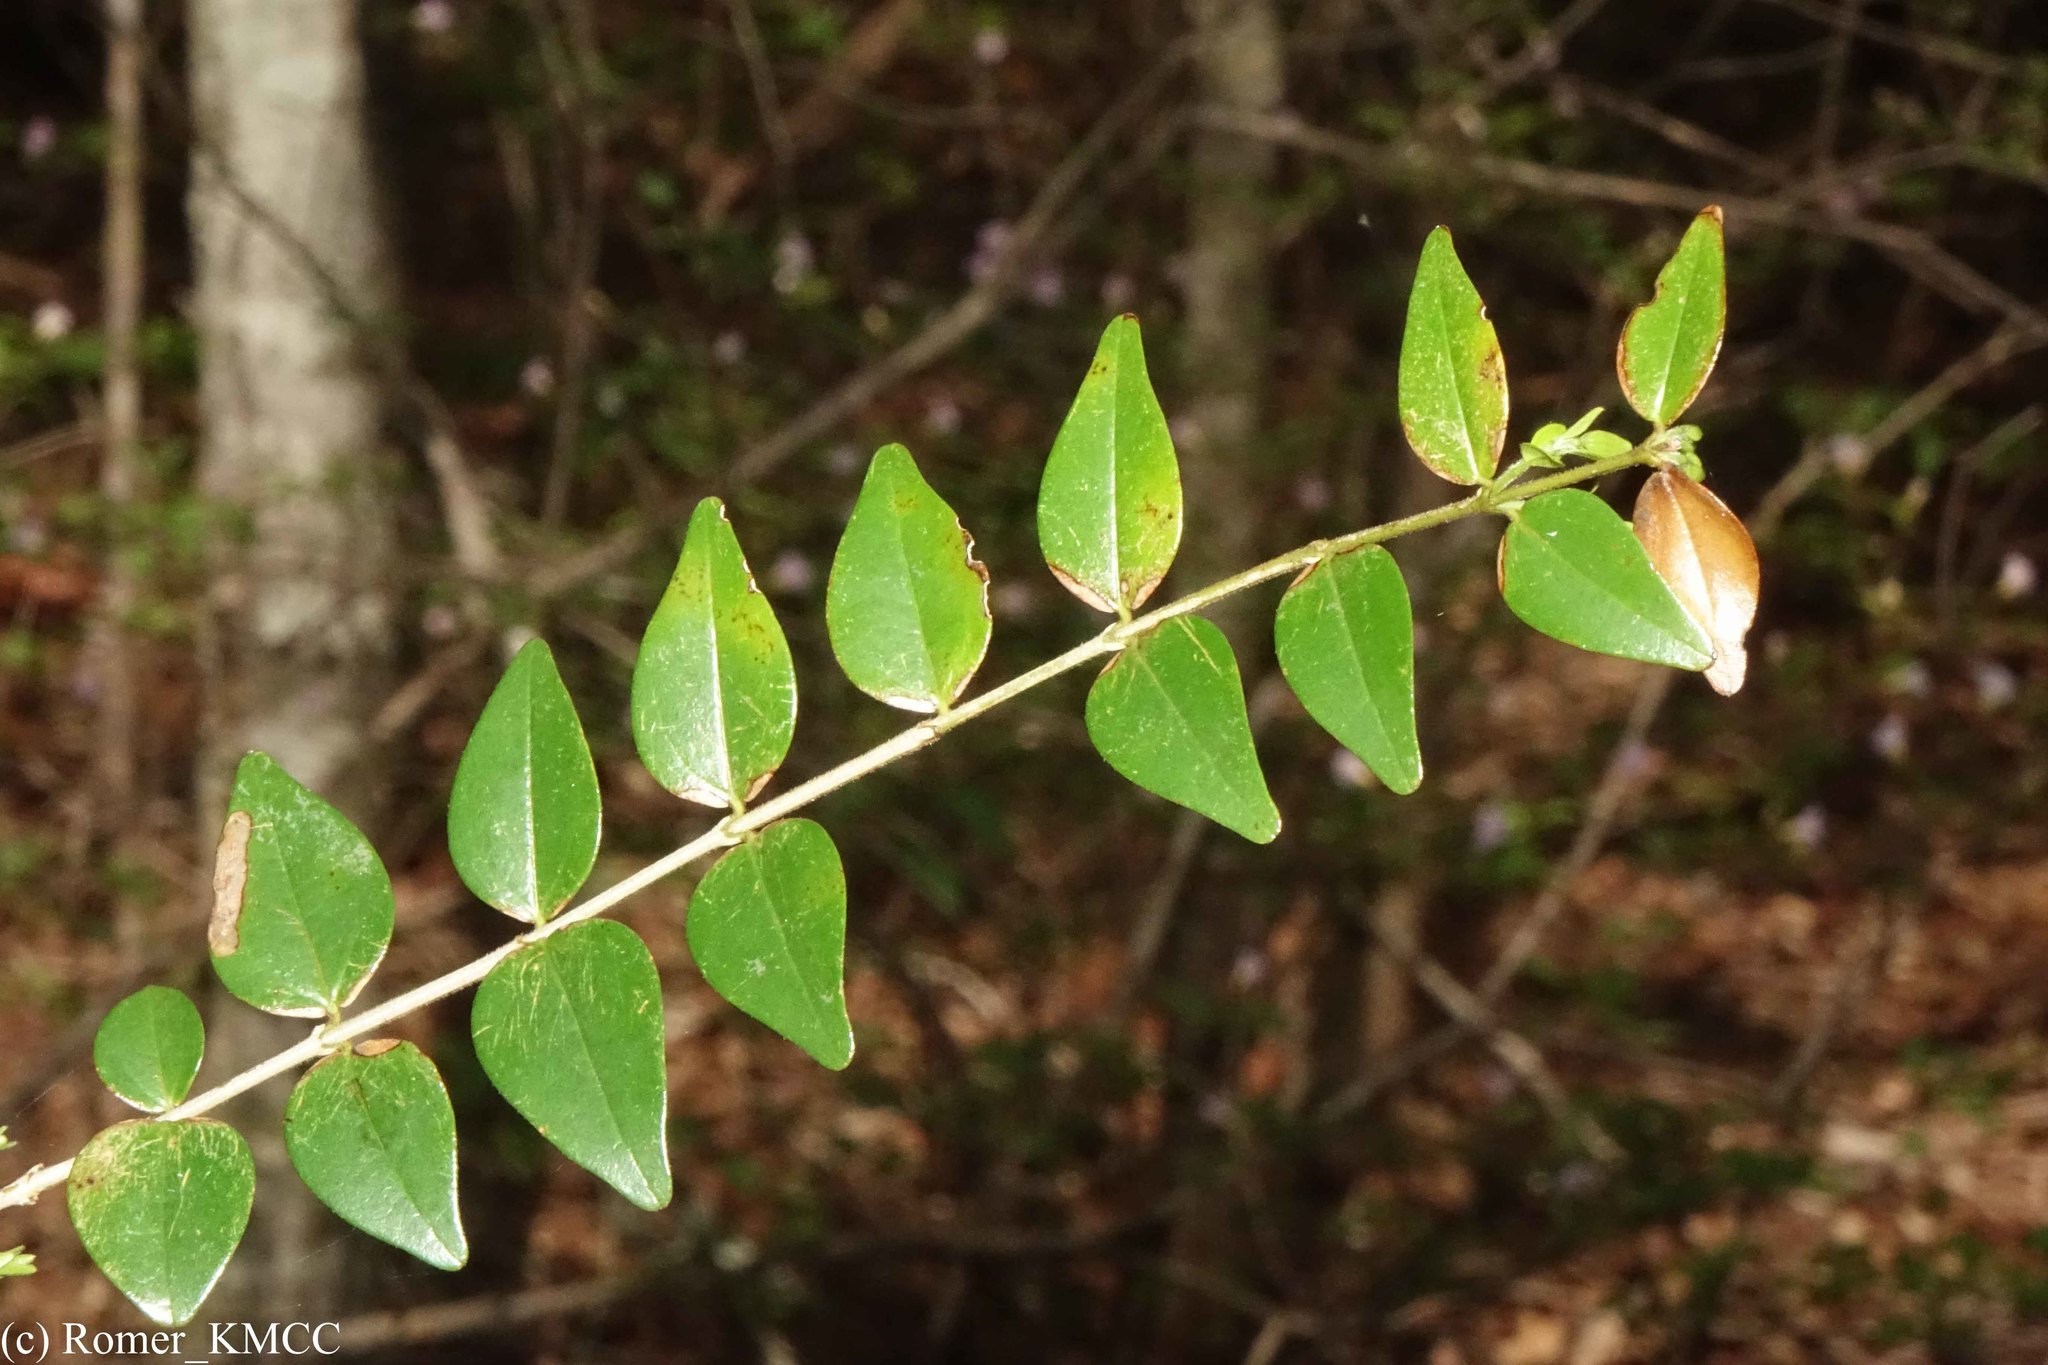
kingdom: Plantae
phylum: Tracheophyta
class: Magnoliopsida
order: Gentianales
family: Loganiaceae
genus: Strychnos
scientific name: Strychnos myrtoides
